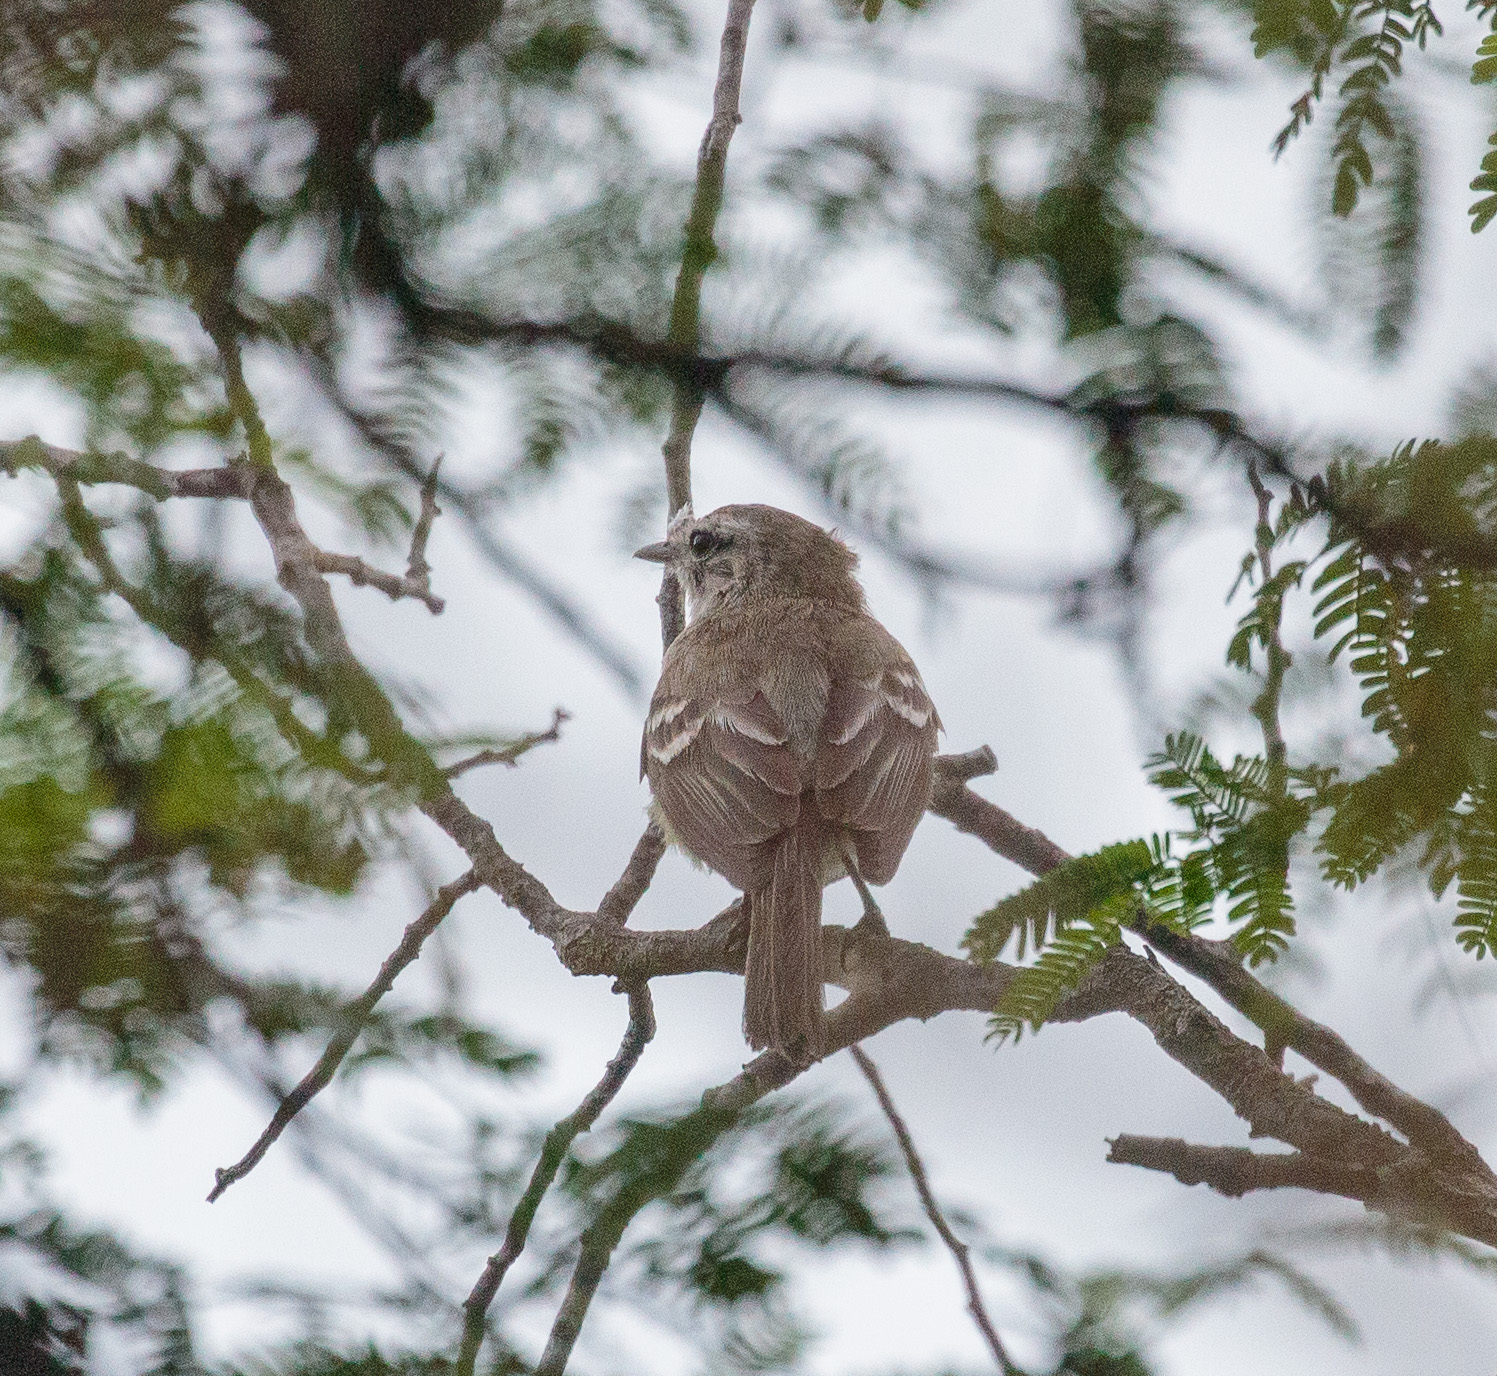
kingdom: Animalia
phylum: Chordata
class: Aves
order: Passeriformes
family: Tyrannidae
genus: Phaeomyias
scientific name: Phaeomyias murina
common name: Mouse-colored tyrannulet
